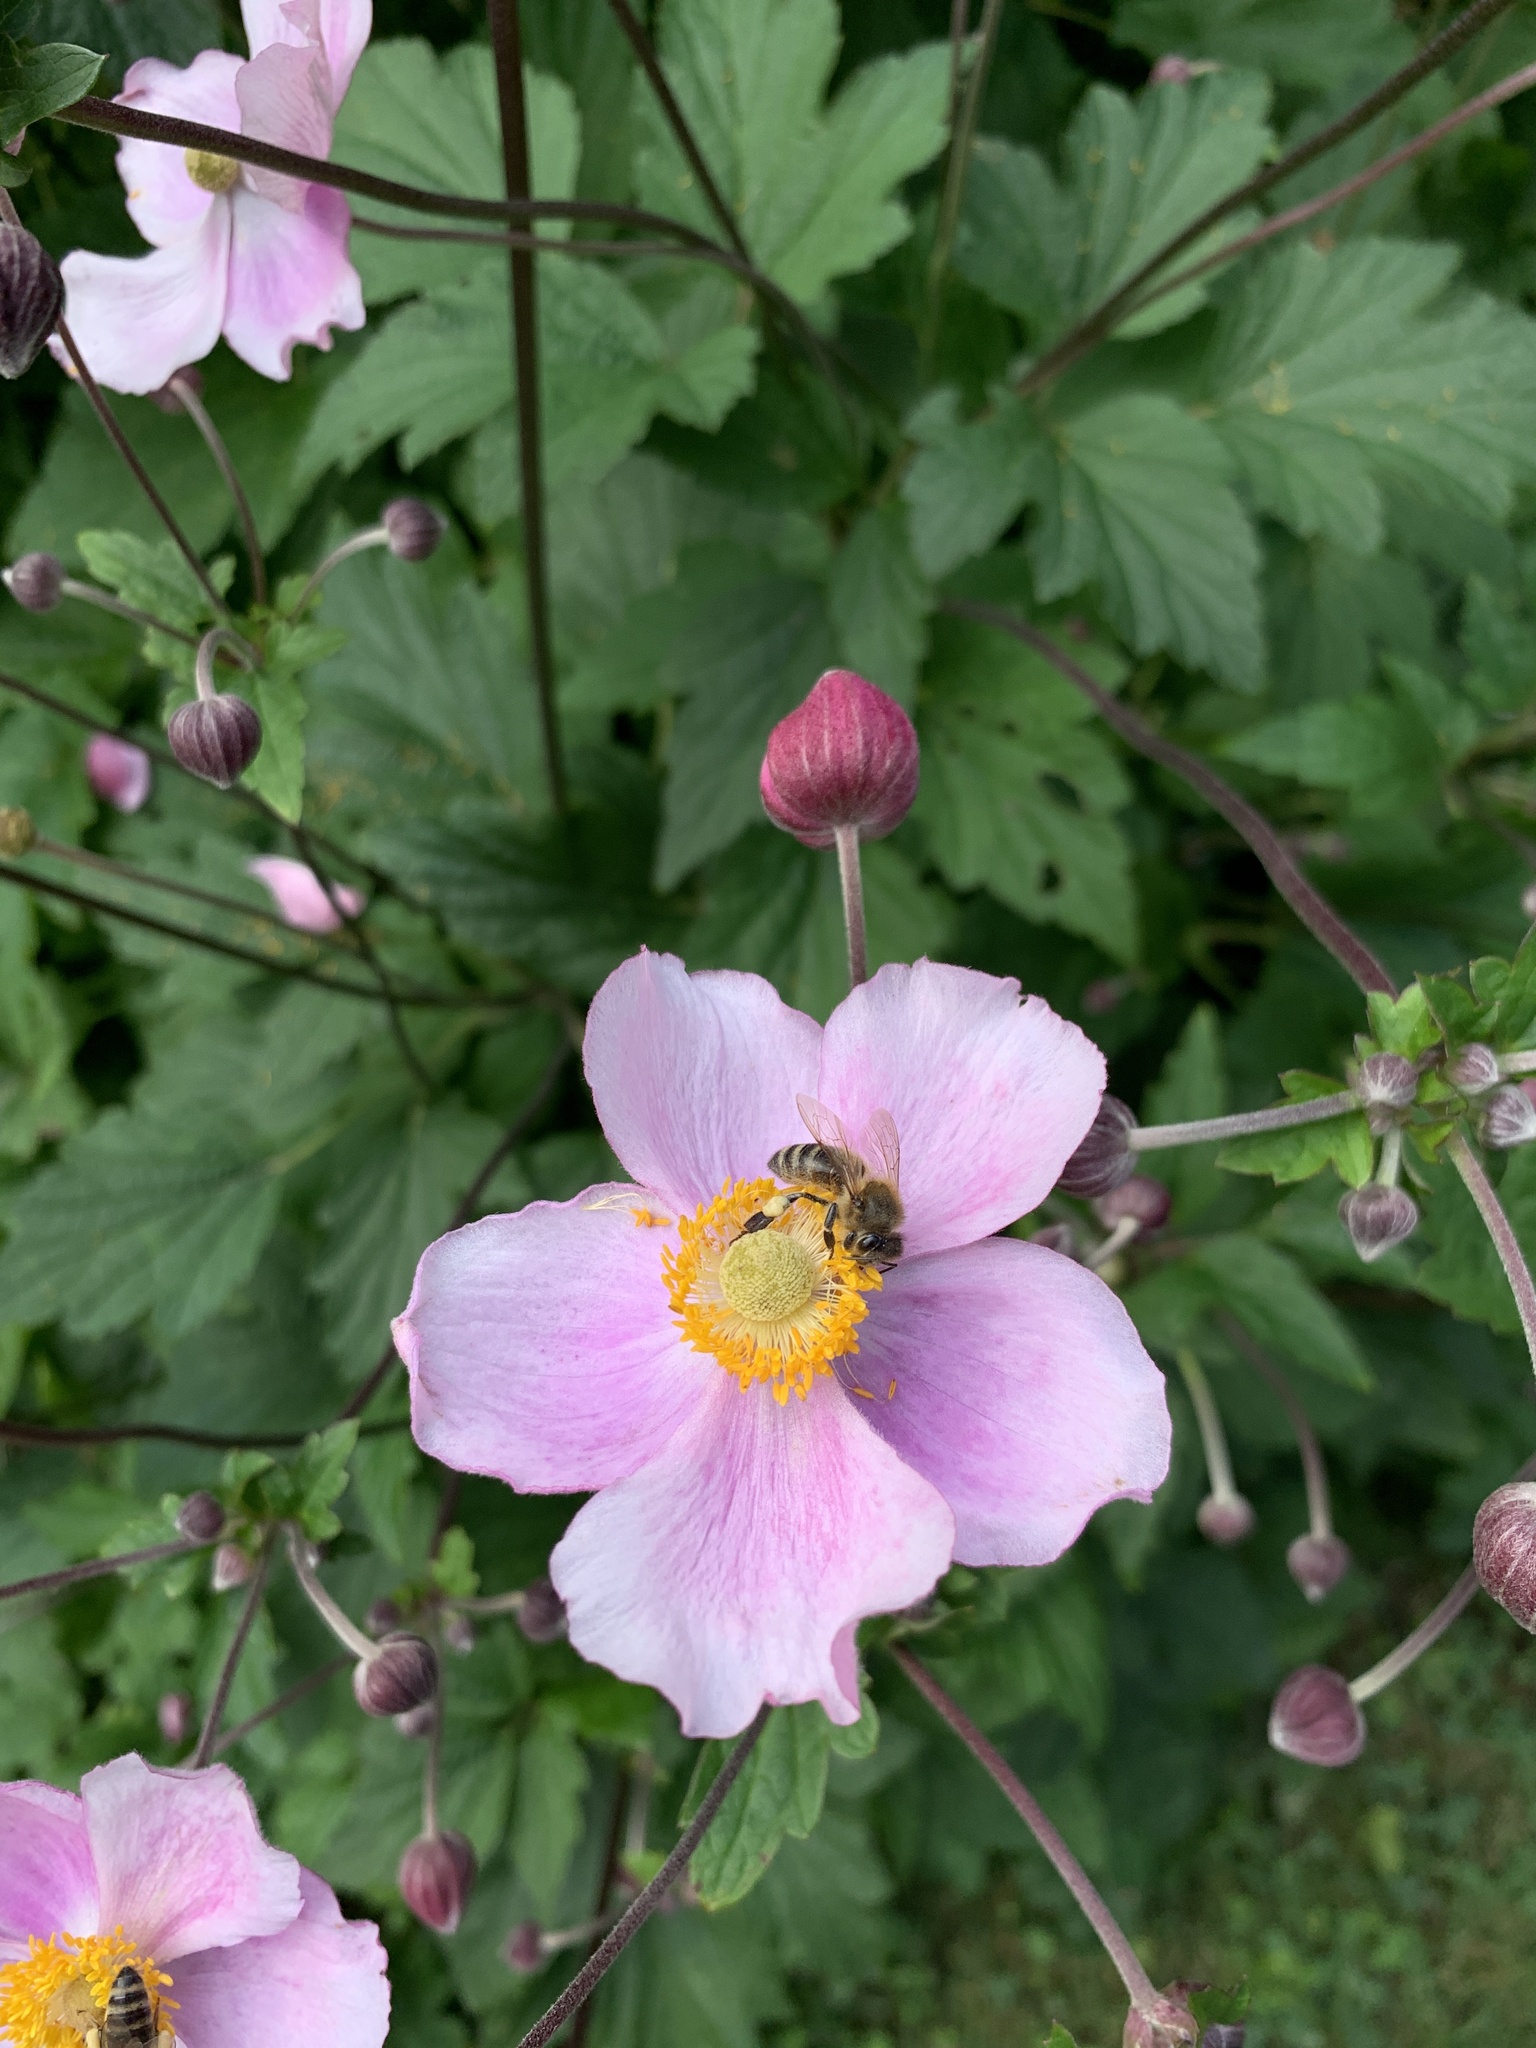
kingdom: Animalia
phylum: Arthropoda
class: Insecta
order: Hymenoptera
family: Apidae
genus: Apis
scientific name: Apis mellifera
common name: Honey bee
